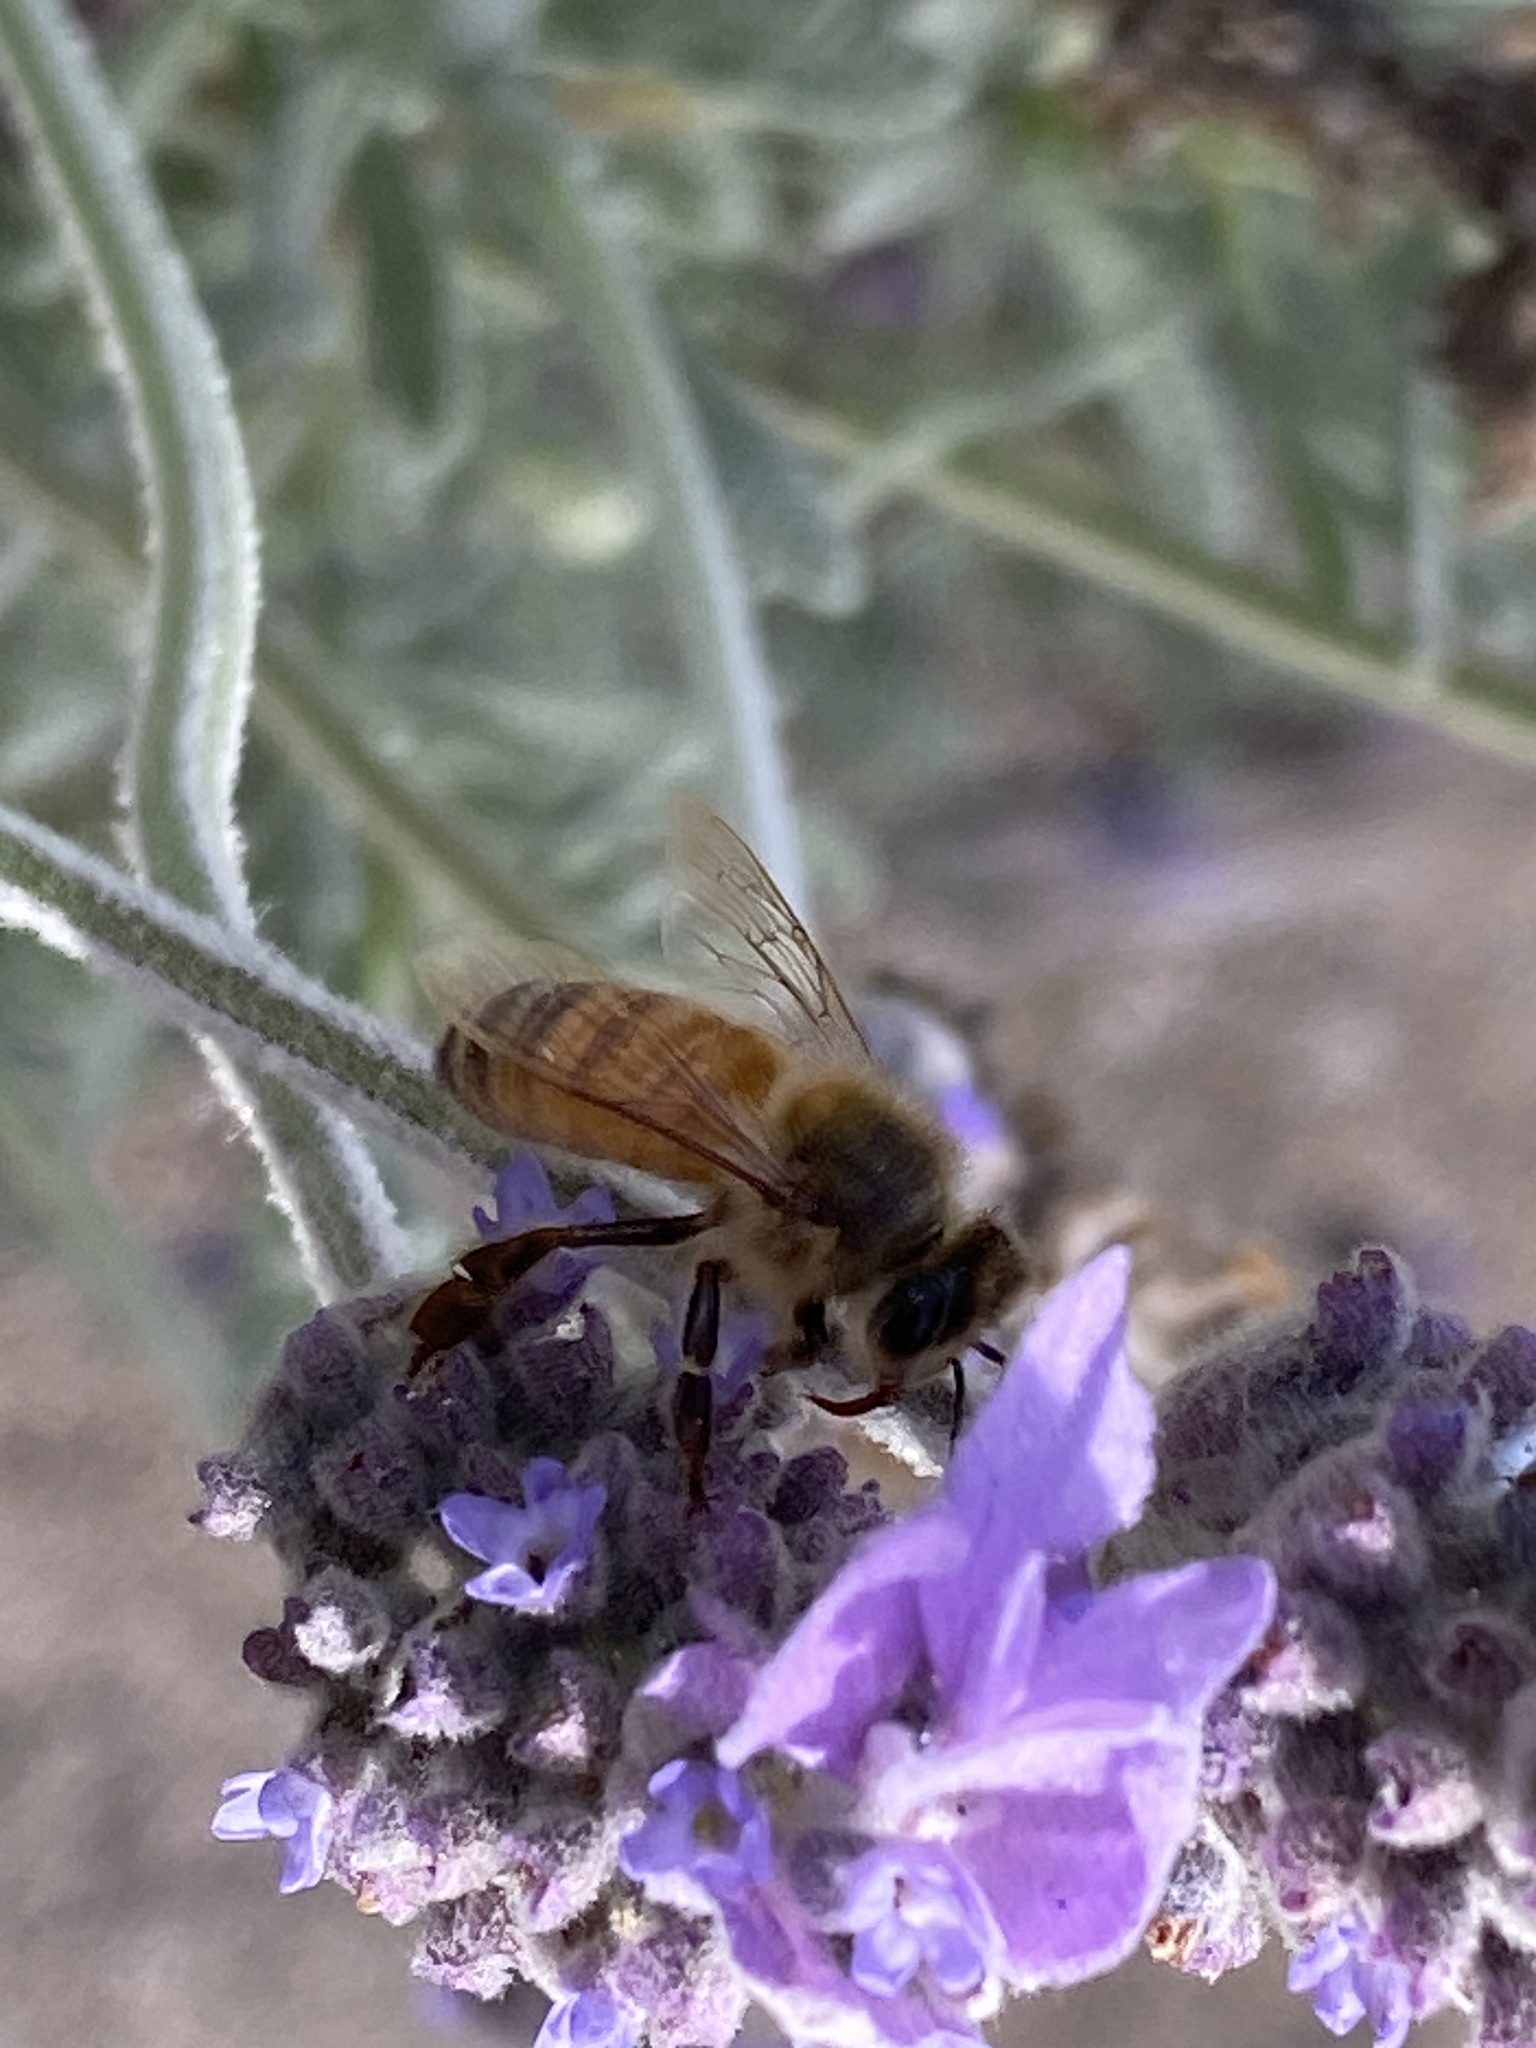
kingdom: Animalia
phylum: Arthropoda
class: Insecta
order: Hymenoptera
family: Apidae
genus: Apis
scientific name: Apis mellifera
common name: Honey bee
